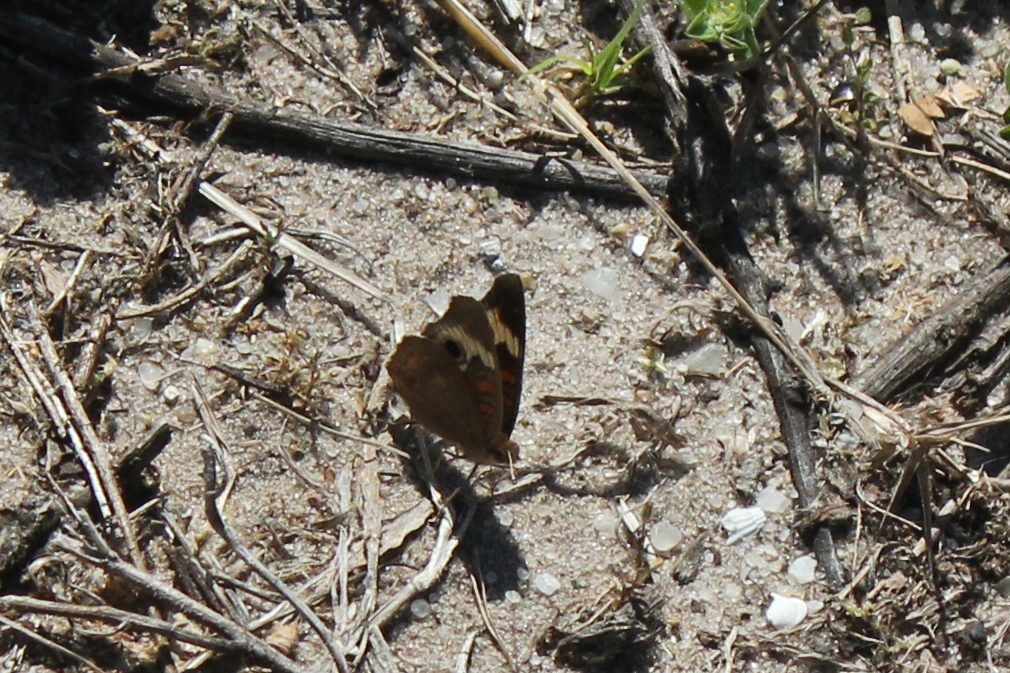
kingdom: Animalia
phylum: Arthropoda
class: Insecta
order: Lepidoptera
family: Nymphalidae
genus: Junonia
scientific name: Junonia coenia
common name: Common buckeye
